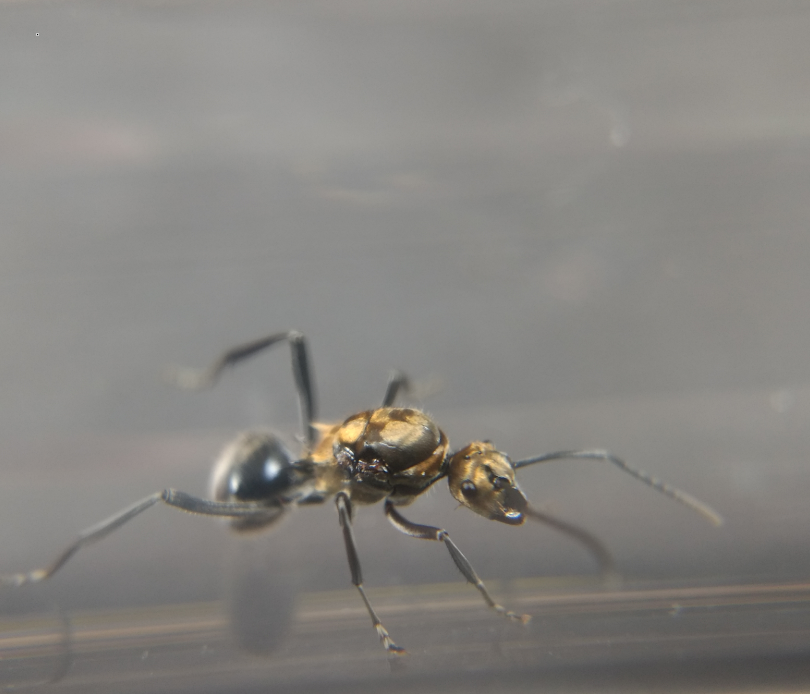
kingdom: Animalia
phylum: Arthropoda
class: Insecta
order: Hymenoptera
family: Formicidae
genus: Polyrhachis
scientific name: Polyrhachis semiaurata
